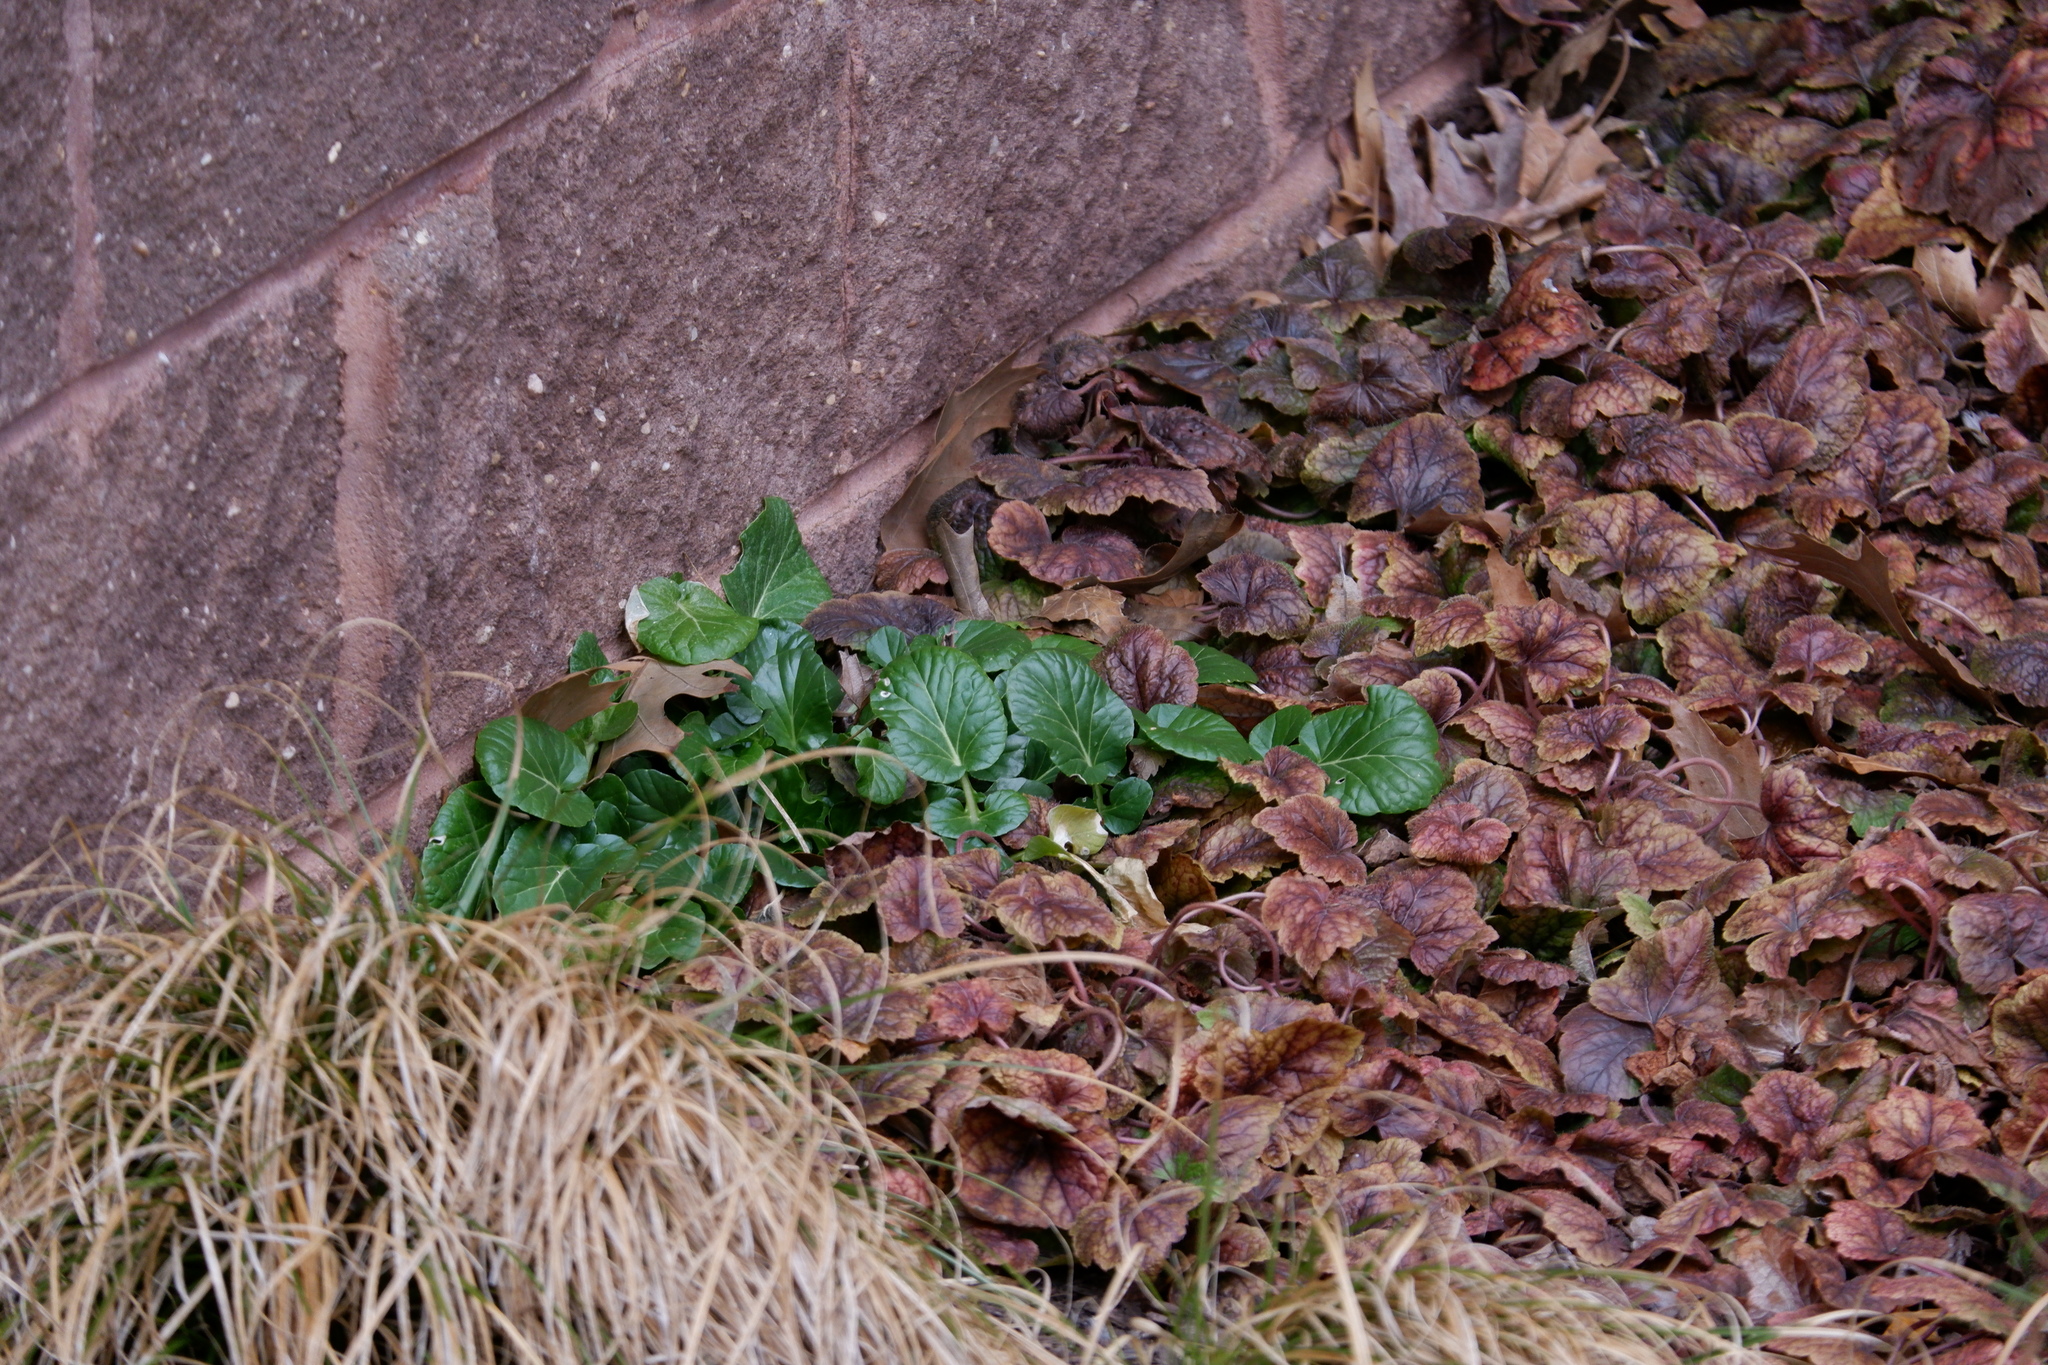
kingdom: Plantae
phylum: Tracheophyta
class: Magnoliopsida
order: Brassicales
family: Brassicaceae
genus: Barbarea
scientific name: Barbarea vulgaris
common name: Cressy-greens
